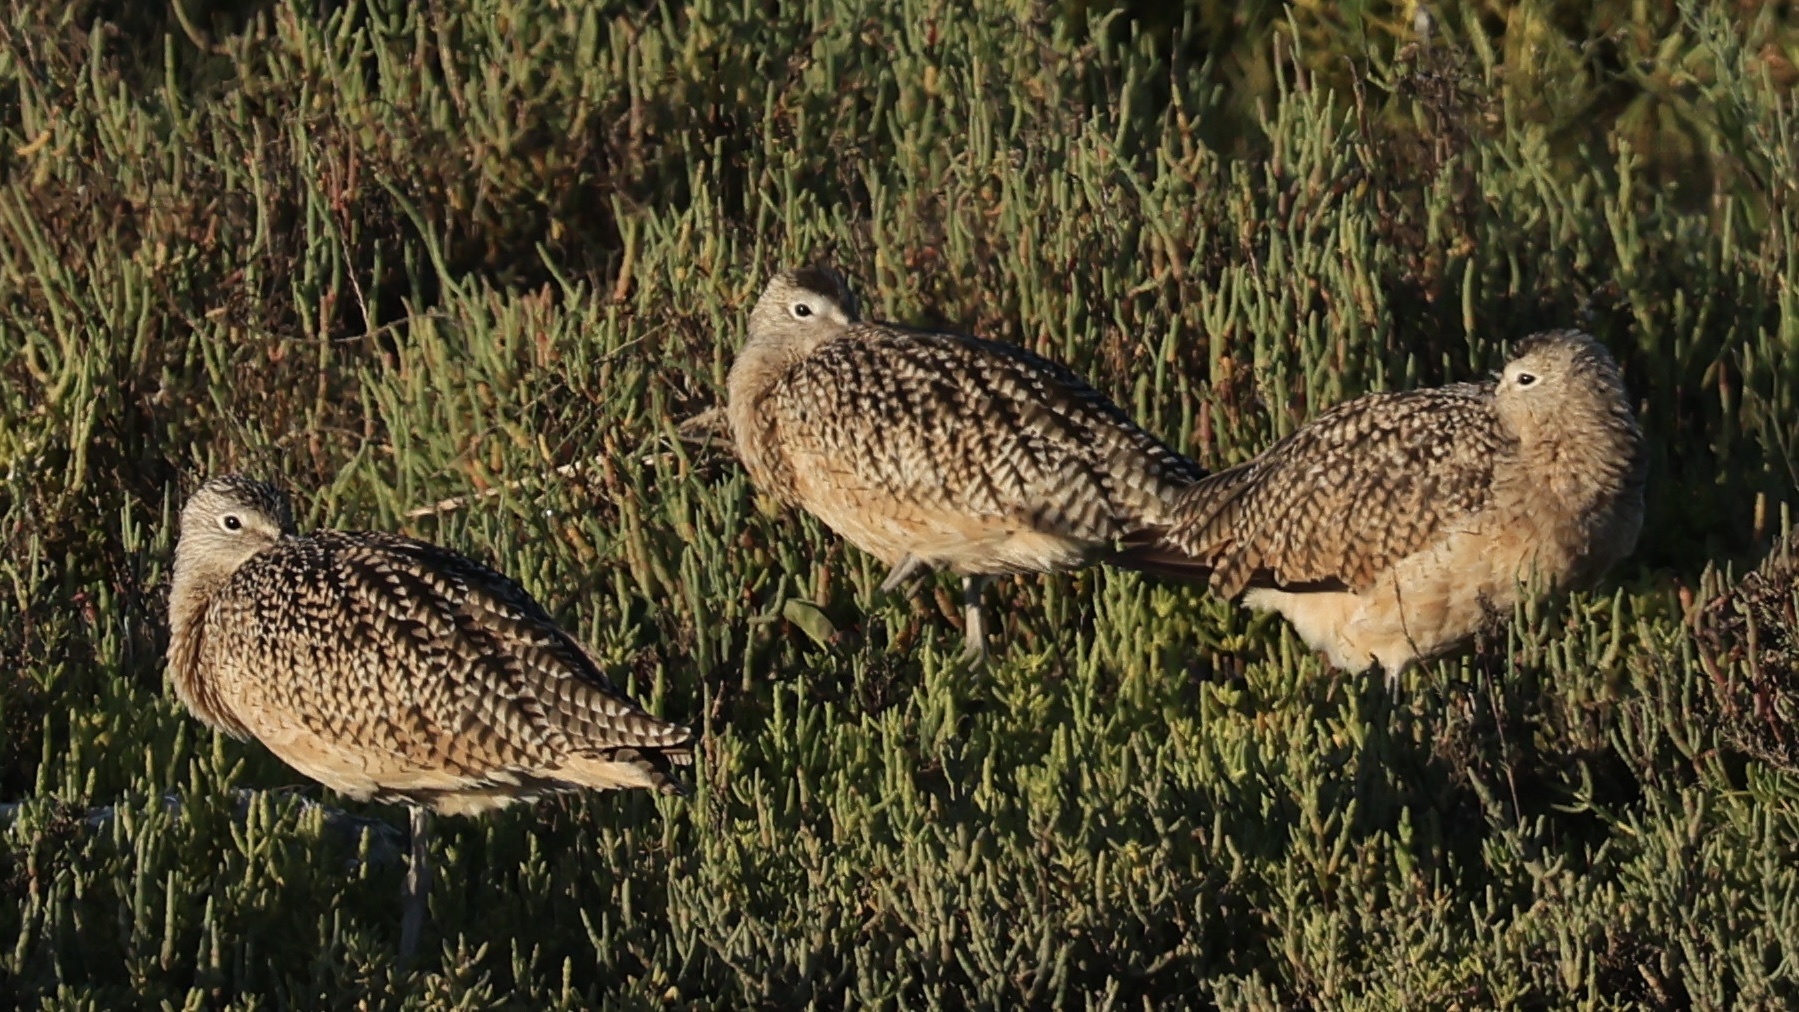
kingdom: Animalia
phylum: Chordata
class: Aves
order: Charadriiformes
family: Scolopacidae
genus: Numenius
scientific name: Numenius americanus
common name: Long-billed curlew
